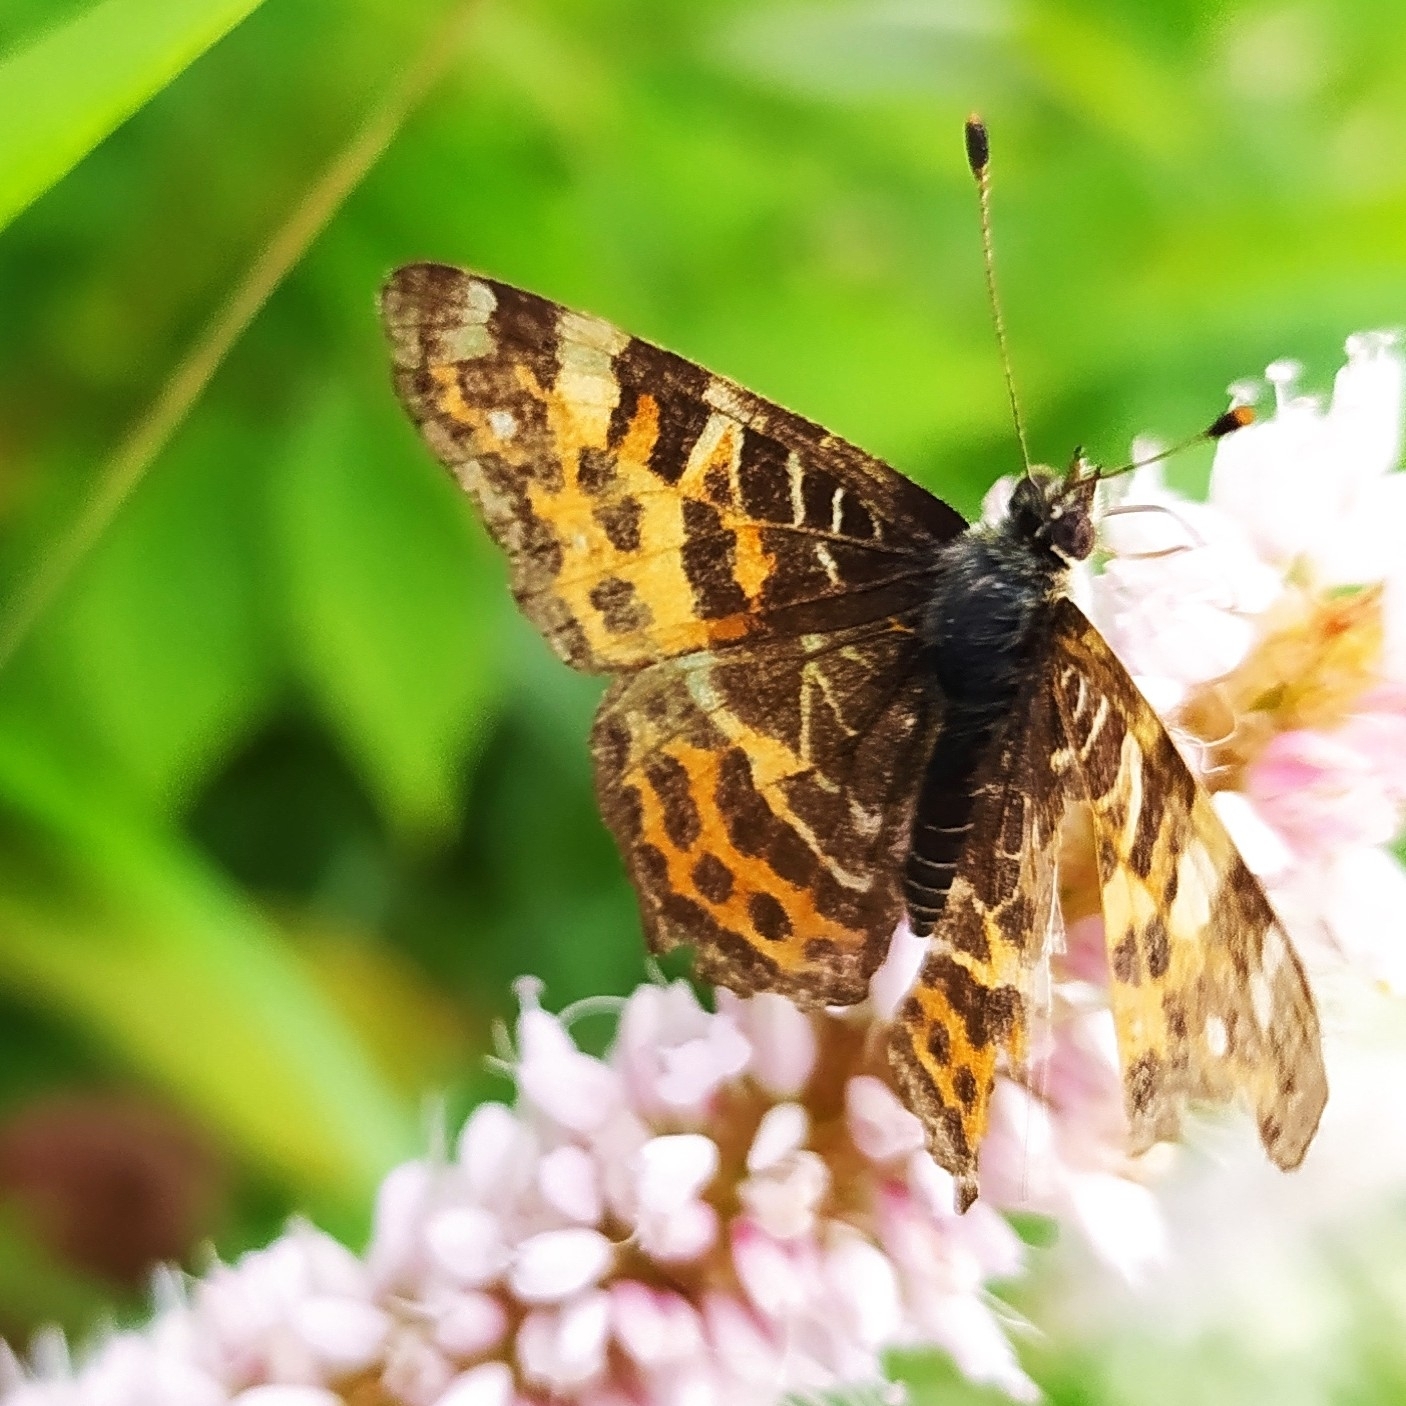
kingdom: Animalia
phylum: Arthropoda
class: Insecta
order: Lepidoptera
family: Nymphalidae
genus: Araschnia
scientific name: Araschnia levana
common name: Map butterfly
